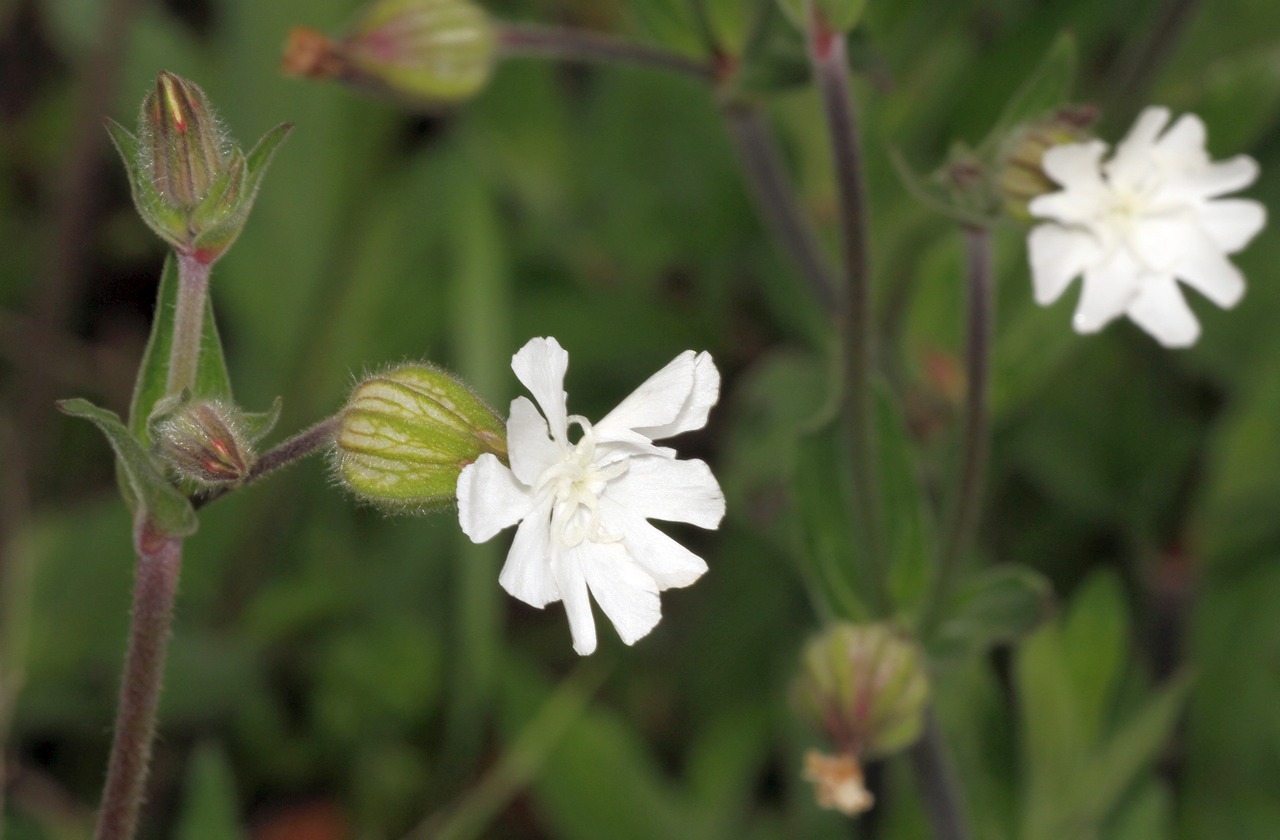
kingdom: Plantae
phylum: Tracheophyta
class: Magnoliopsida
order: Caryophyllales
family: Caryophyllaceae
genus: Silene
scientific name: Silene latifolia
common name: White campion
